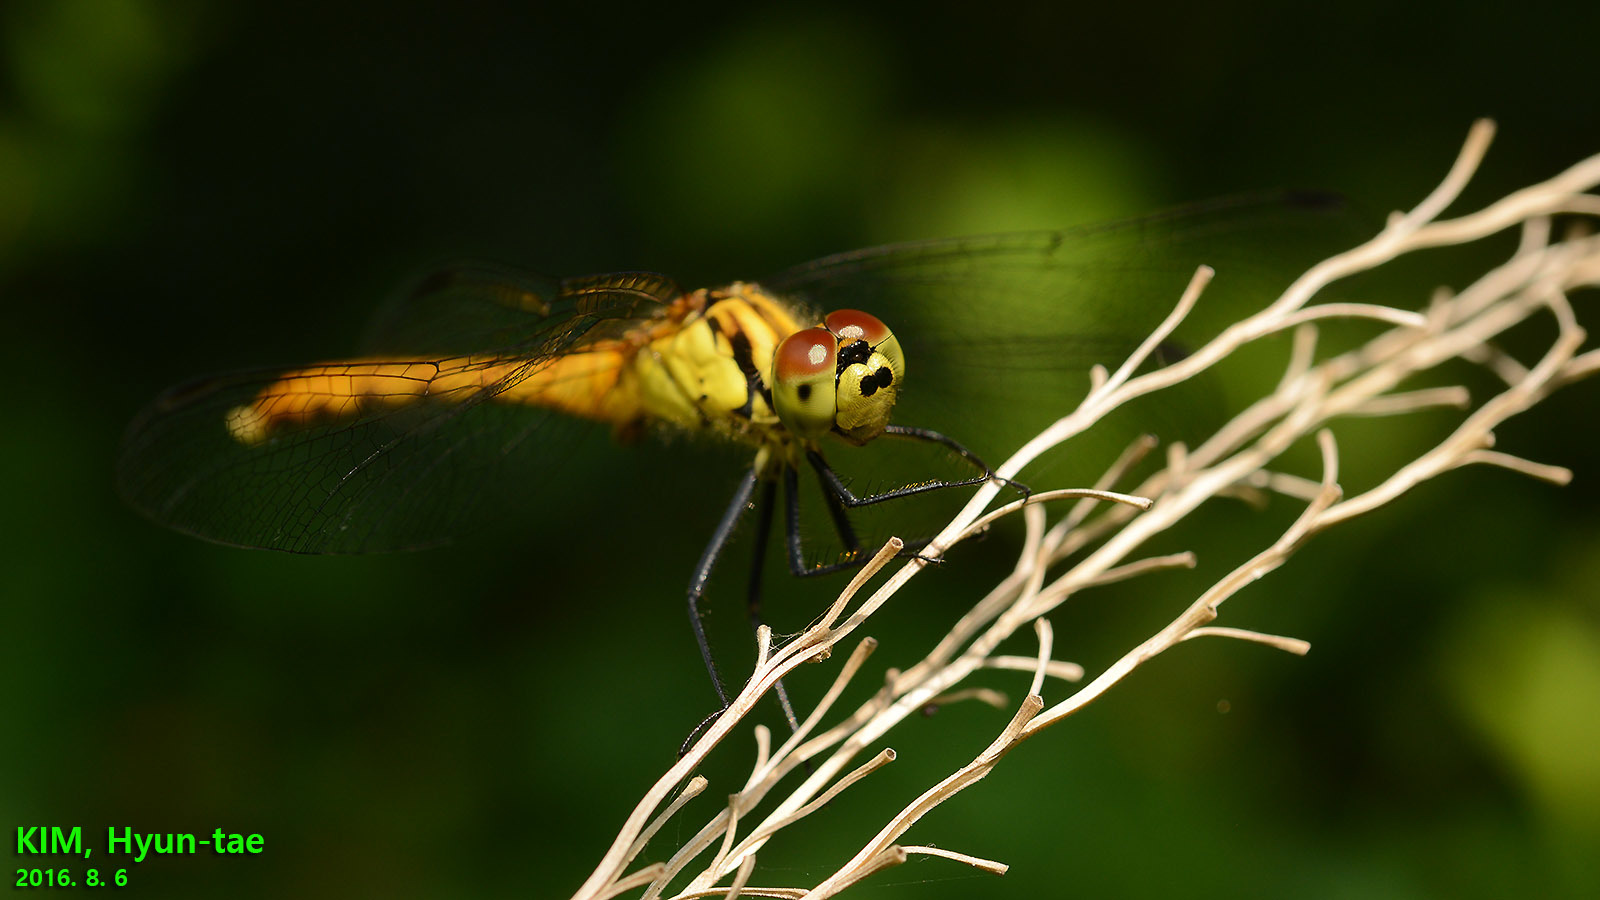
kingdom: Animalia
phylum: Arthropoda
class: Insecta
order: Odonata
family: Libellulidae
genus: Sympetrum
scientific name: Sympetrum eroticum
